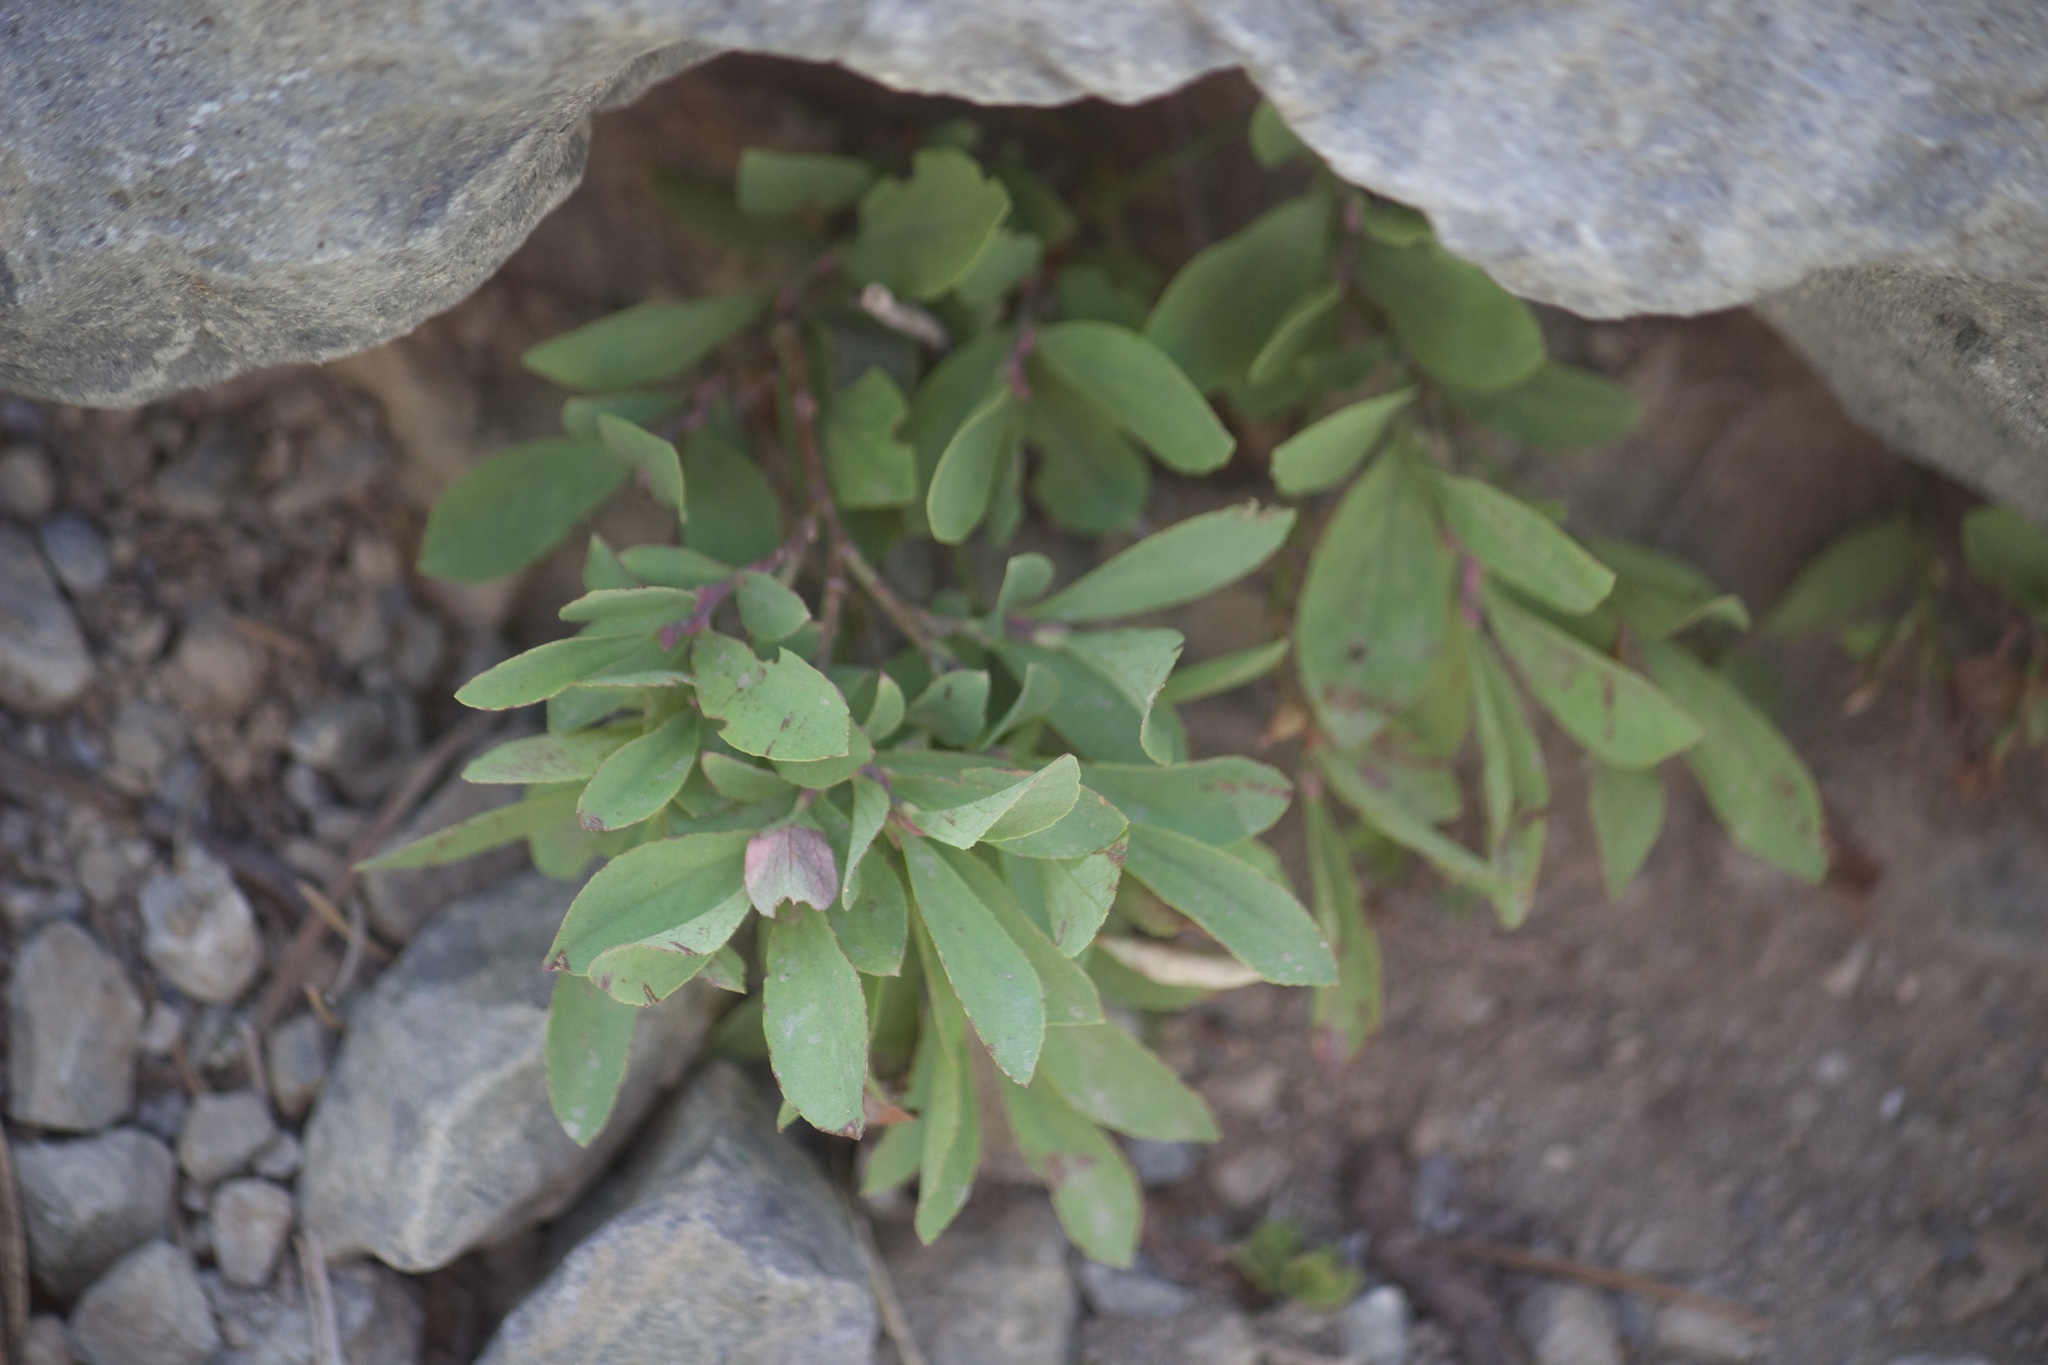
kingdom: Plantae
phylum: Tracheophyta
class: Magnoliopsida
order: Ericales
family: Ericaceae
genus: Vaccinium
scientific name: Vaccinium cespitosum
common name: Dwarf bilberry
